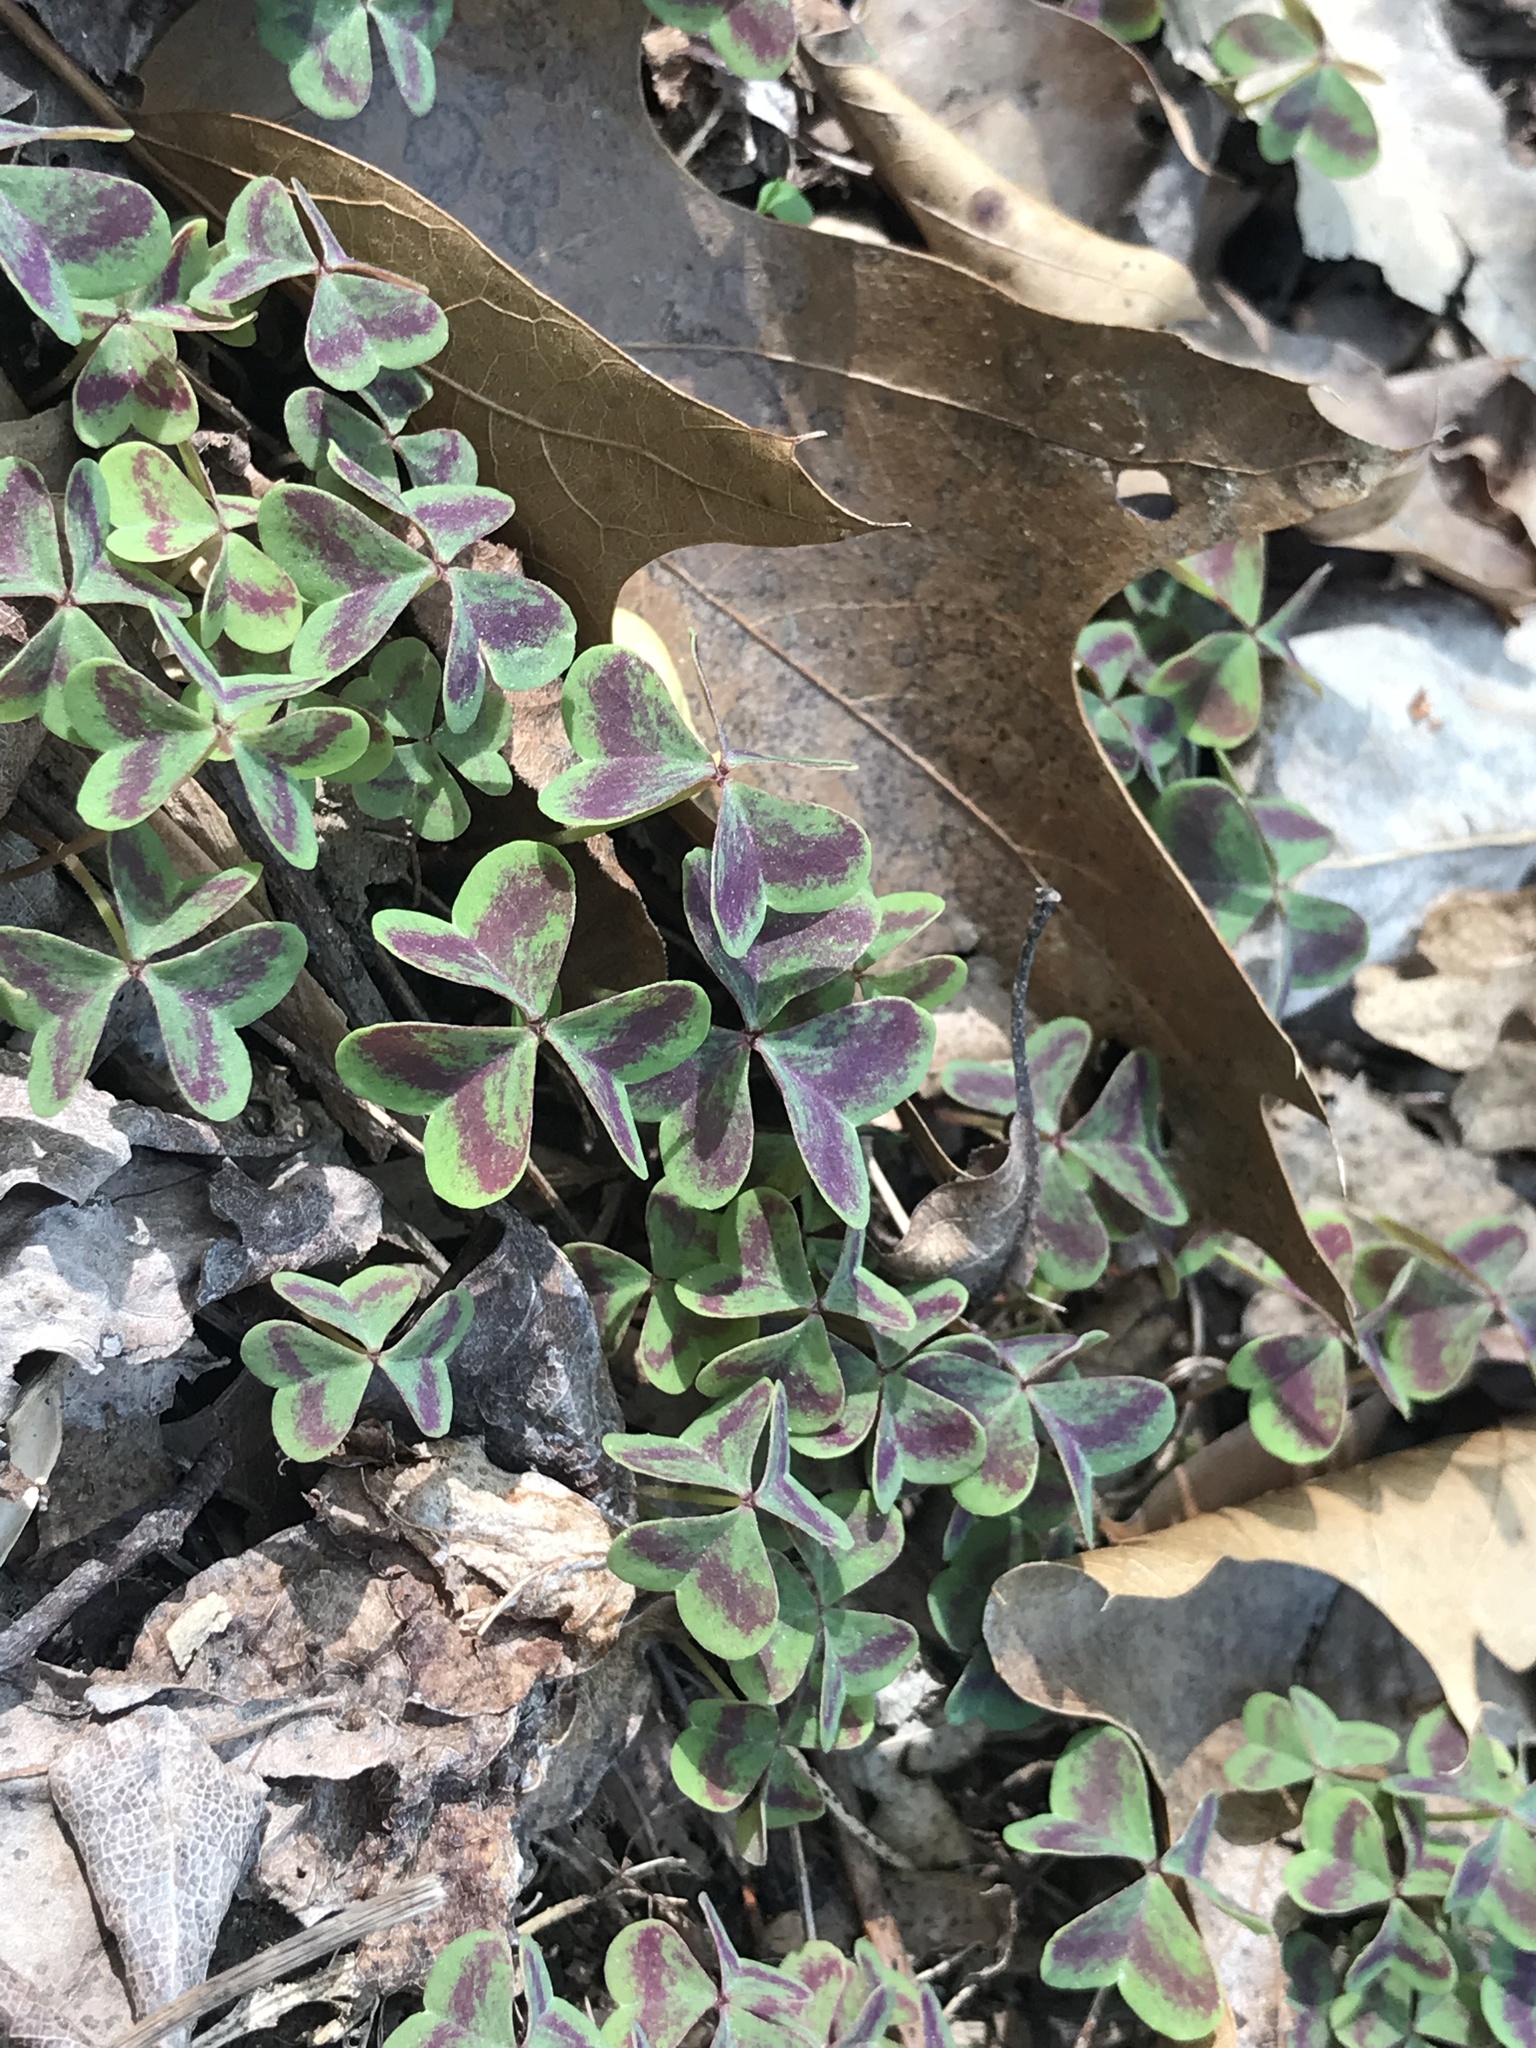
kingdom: Plantae
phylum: Tracheophyta
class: Magnoliopsida
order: Oxalidales
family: Oxalidaceae
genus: Oxalis
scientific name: Oxalis violacea
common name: Violet wood-sorrel
